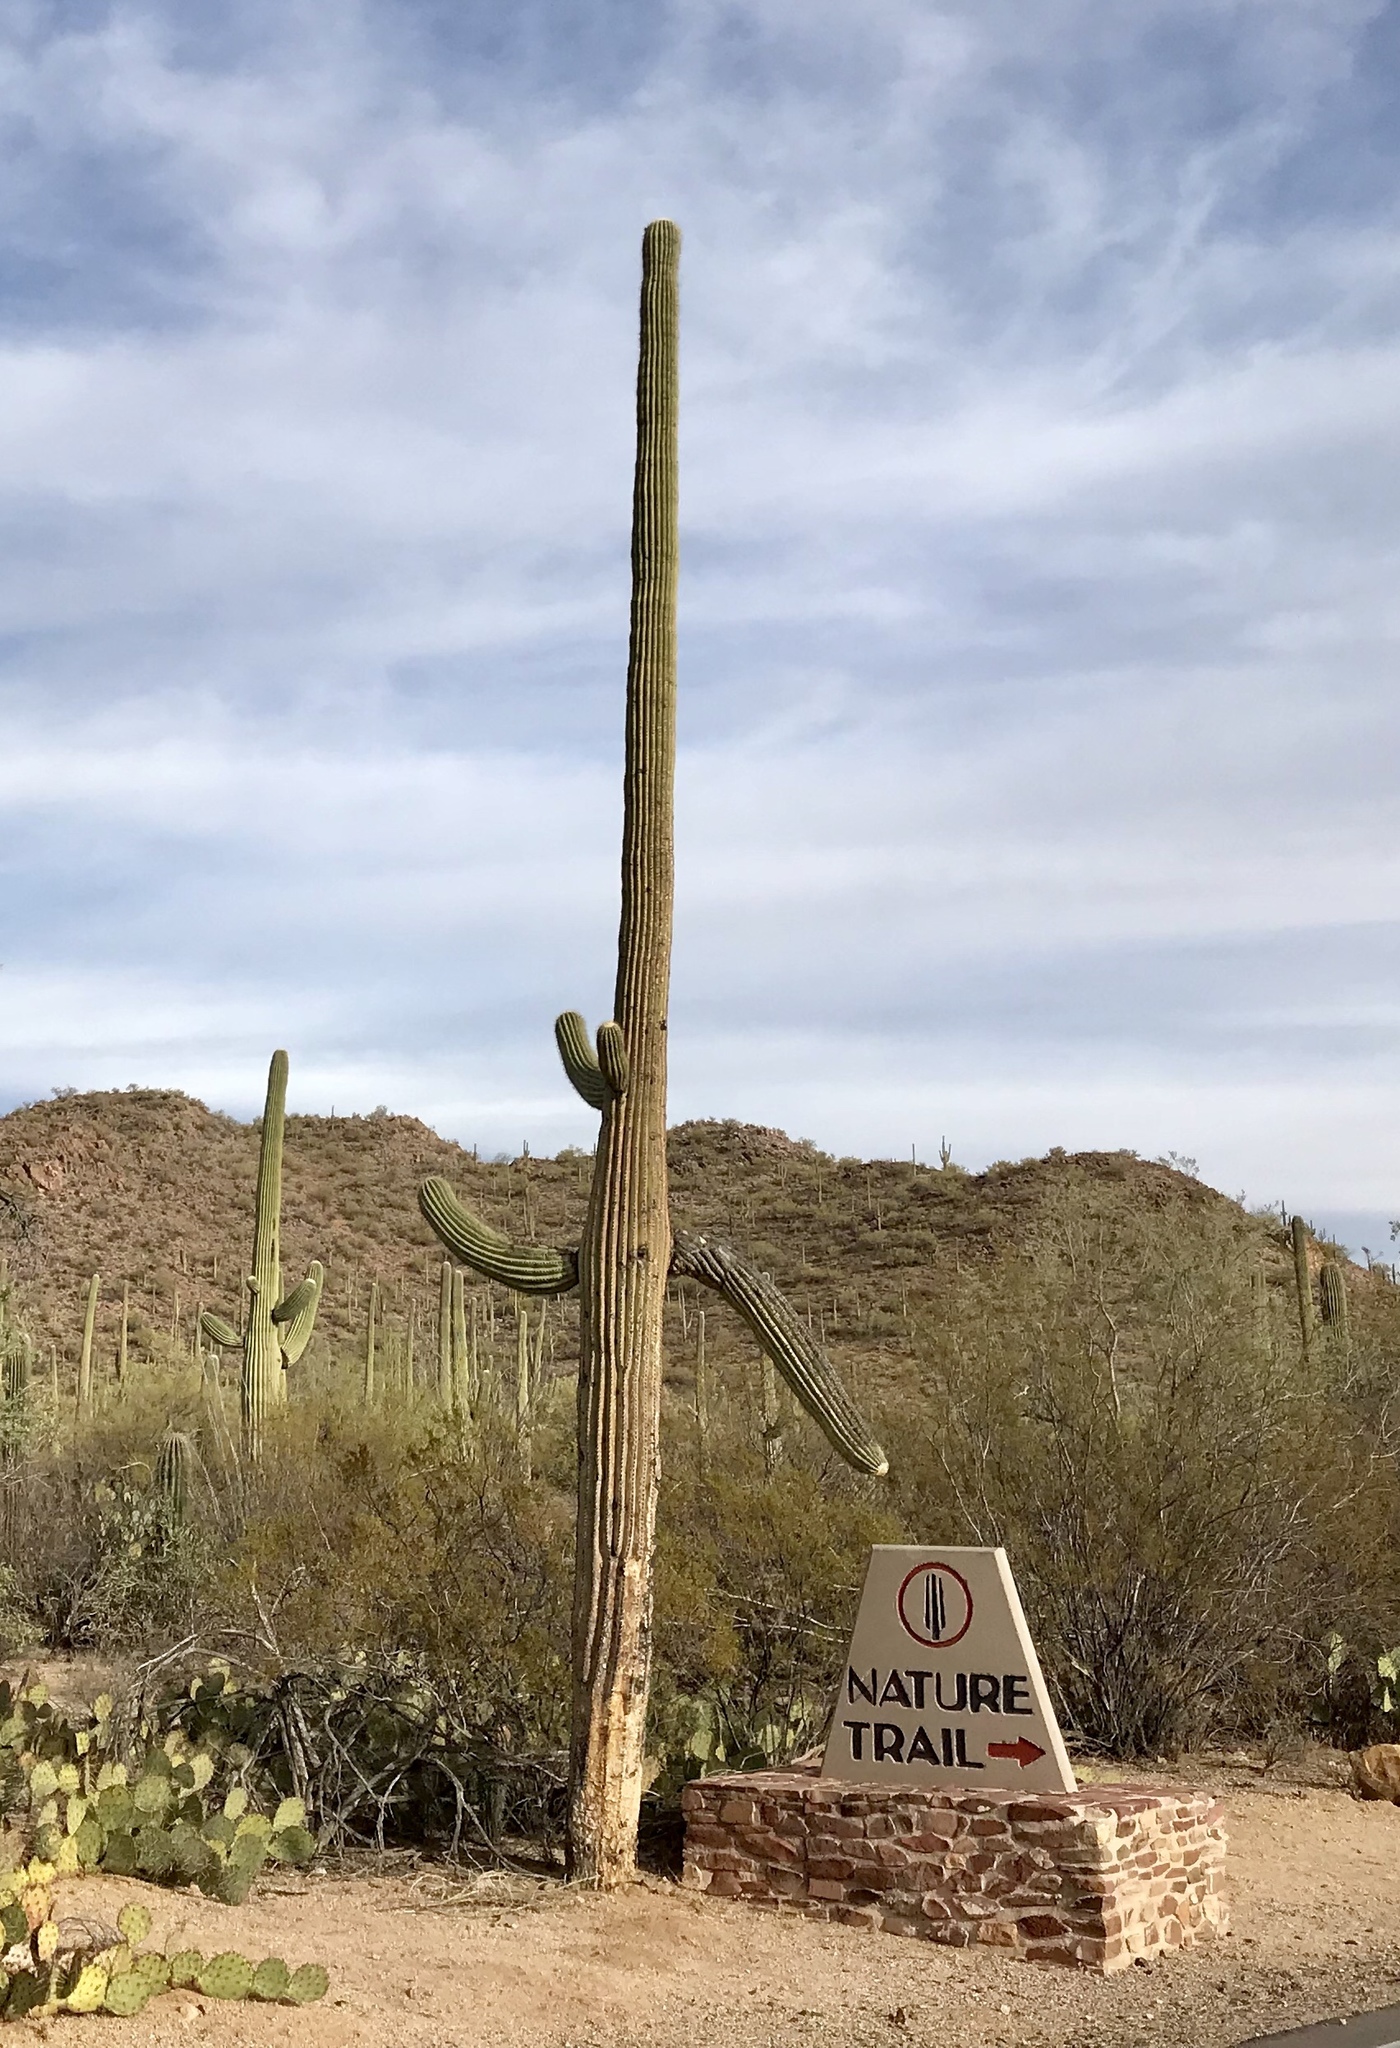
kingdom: Plantae
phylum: Tracheophyta
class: Magnoliopsida
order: Caryophyllales
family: Cactaceae
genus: Carnegiea
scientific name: Carnegiea gigantea
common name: Saguaro
